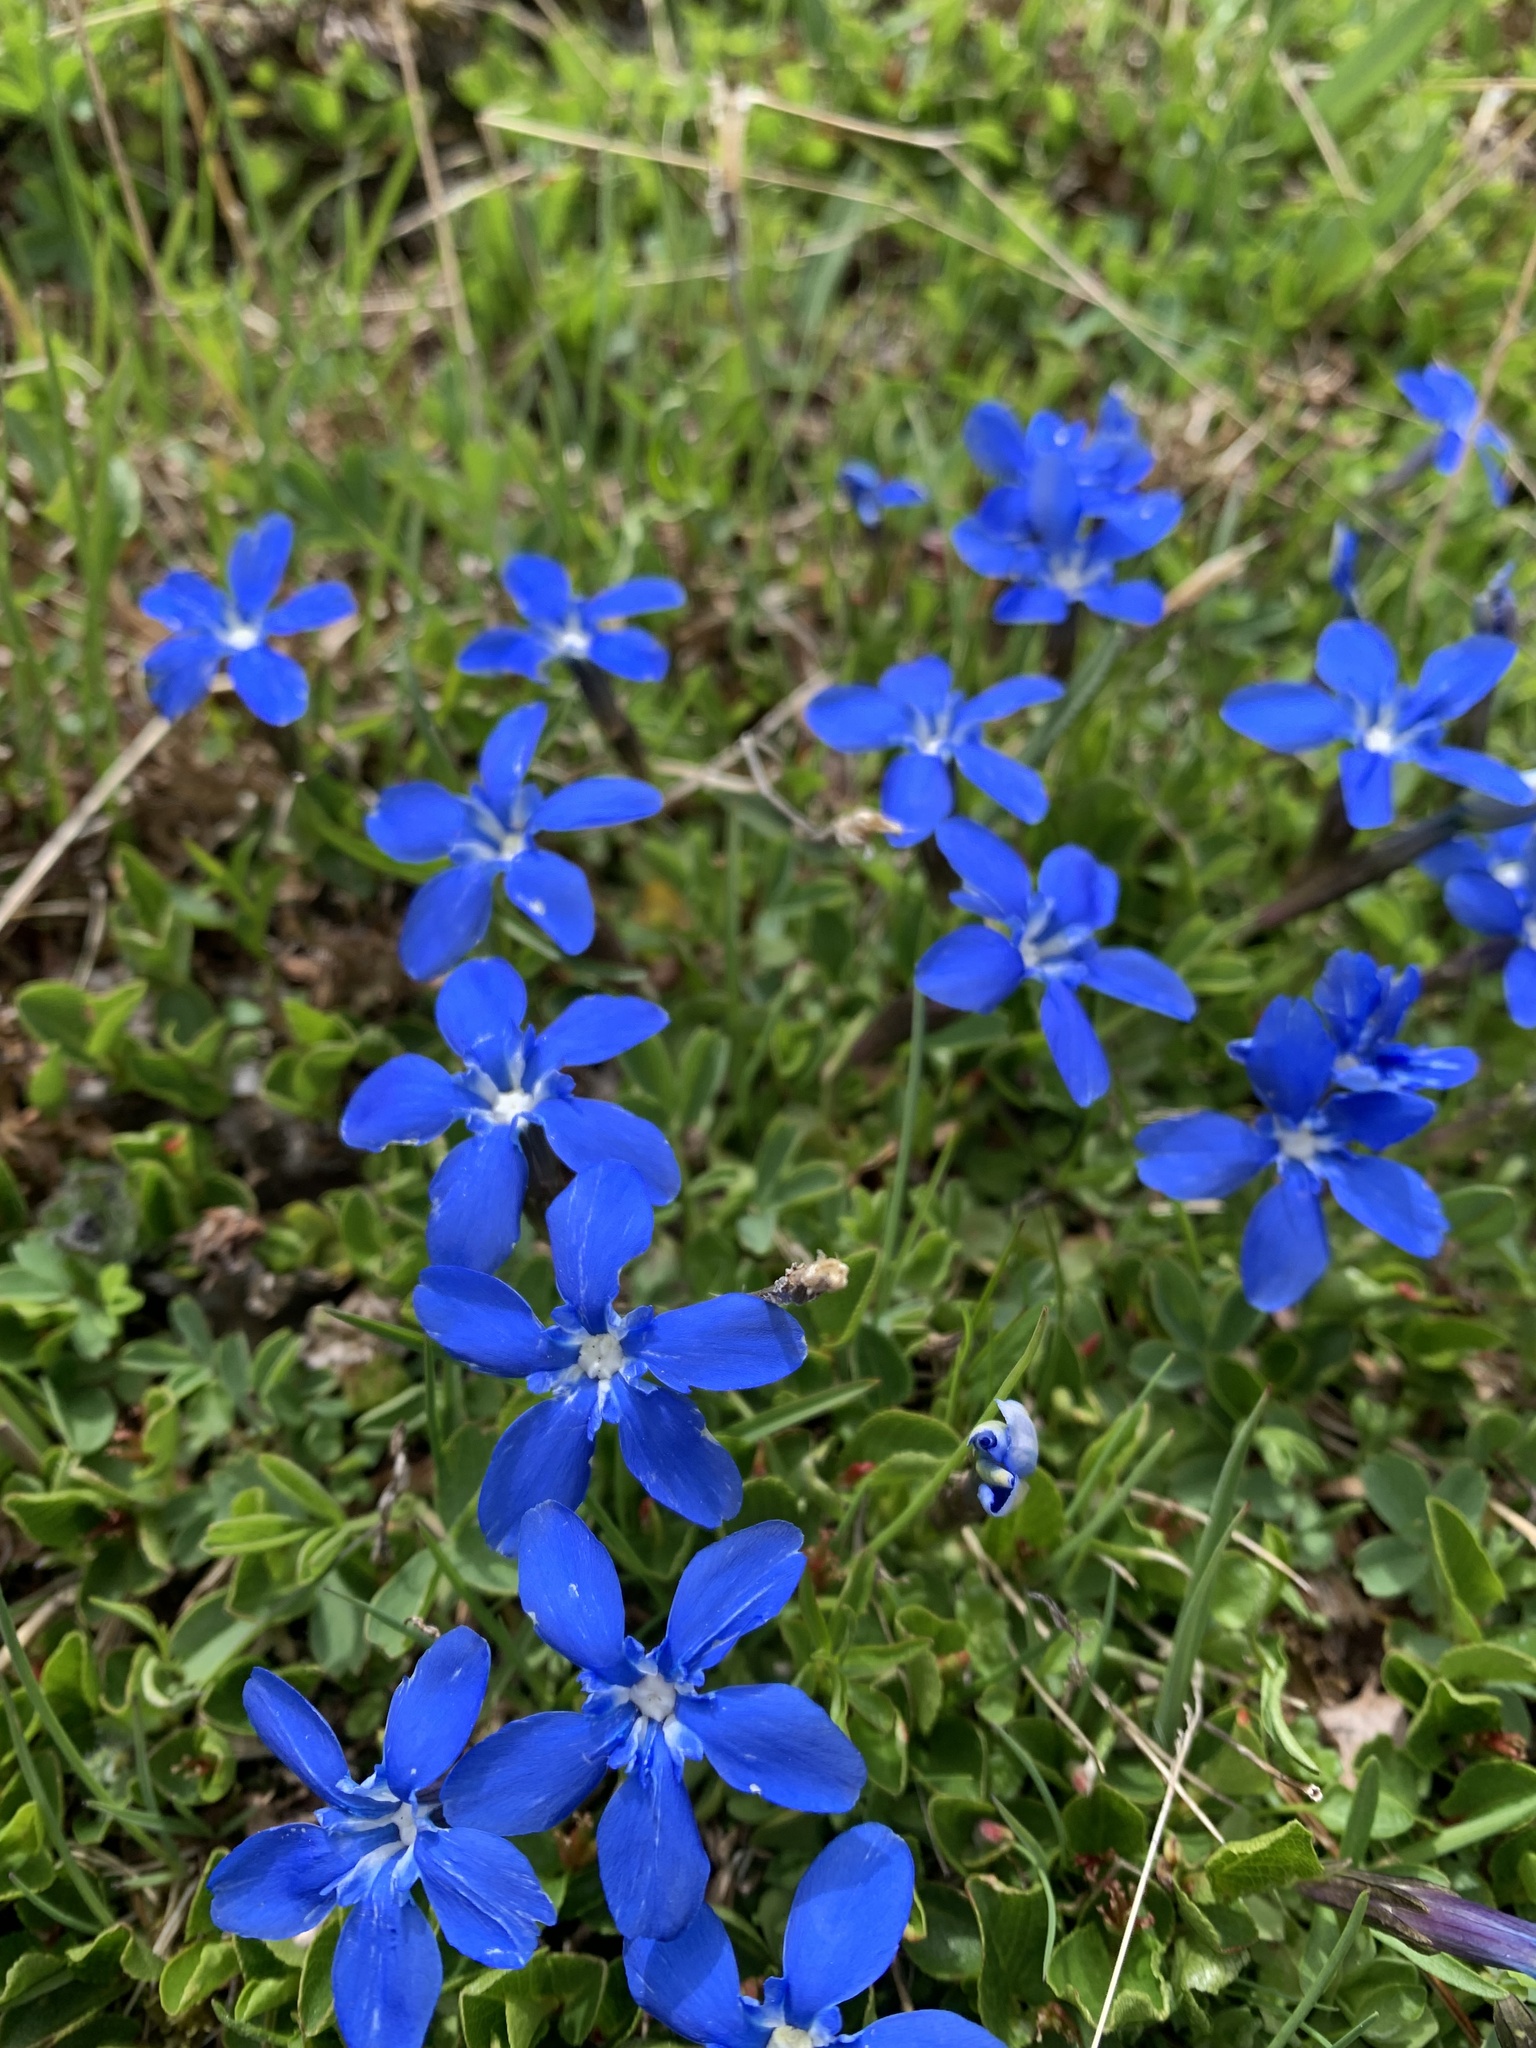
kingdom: Plantae
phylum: Tracheophyta
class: Magnoliopsida
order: Gentianales
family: Gentianaceae
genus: Gentiana
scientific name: Gentiana
